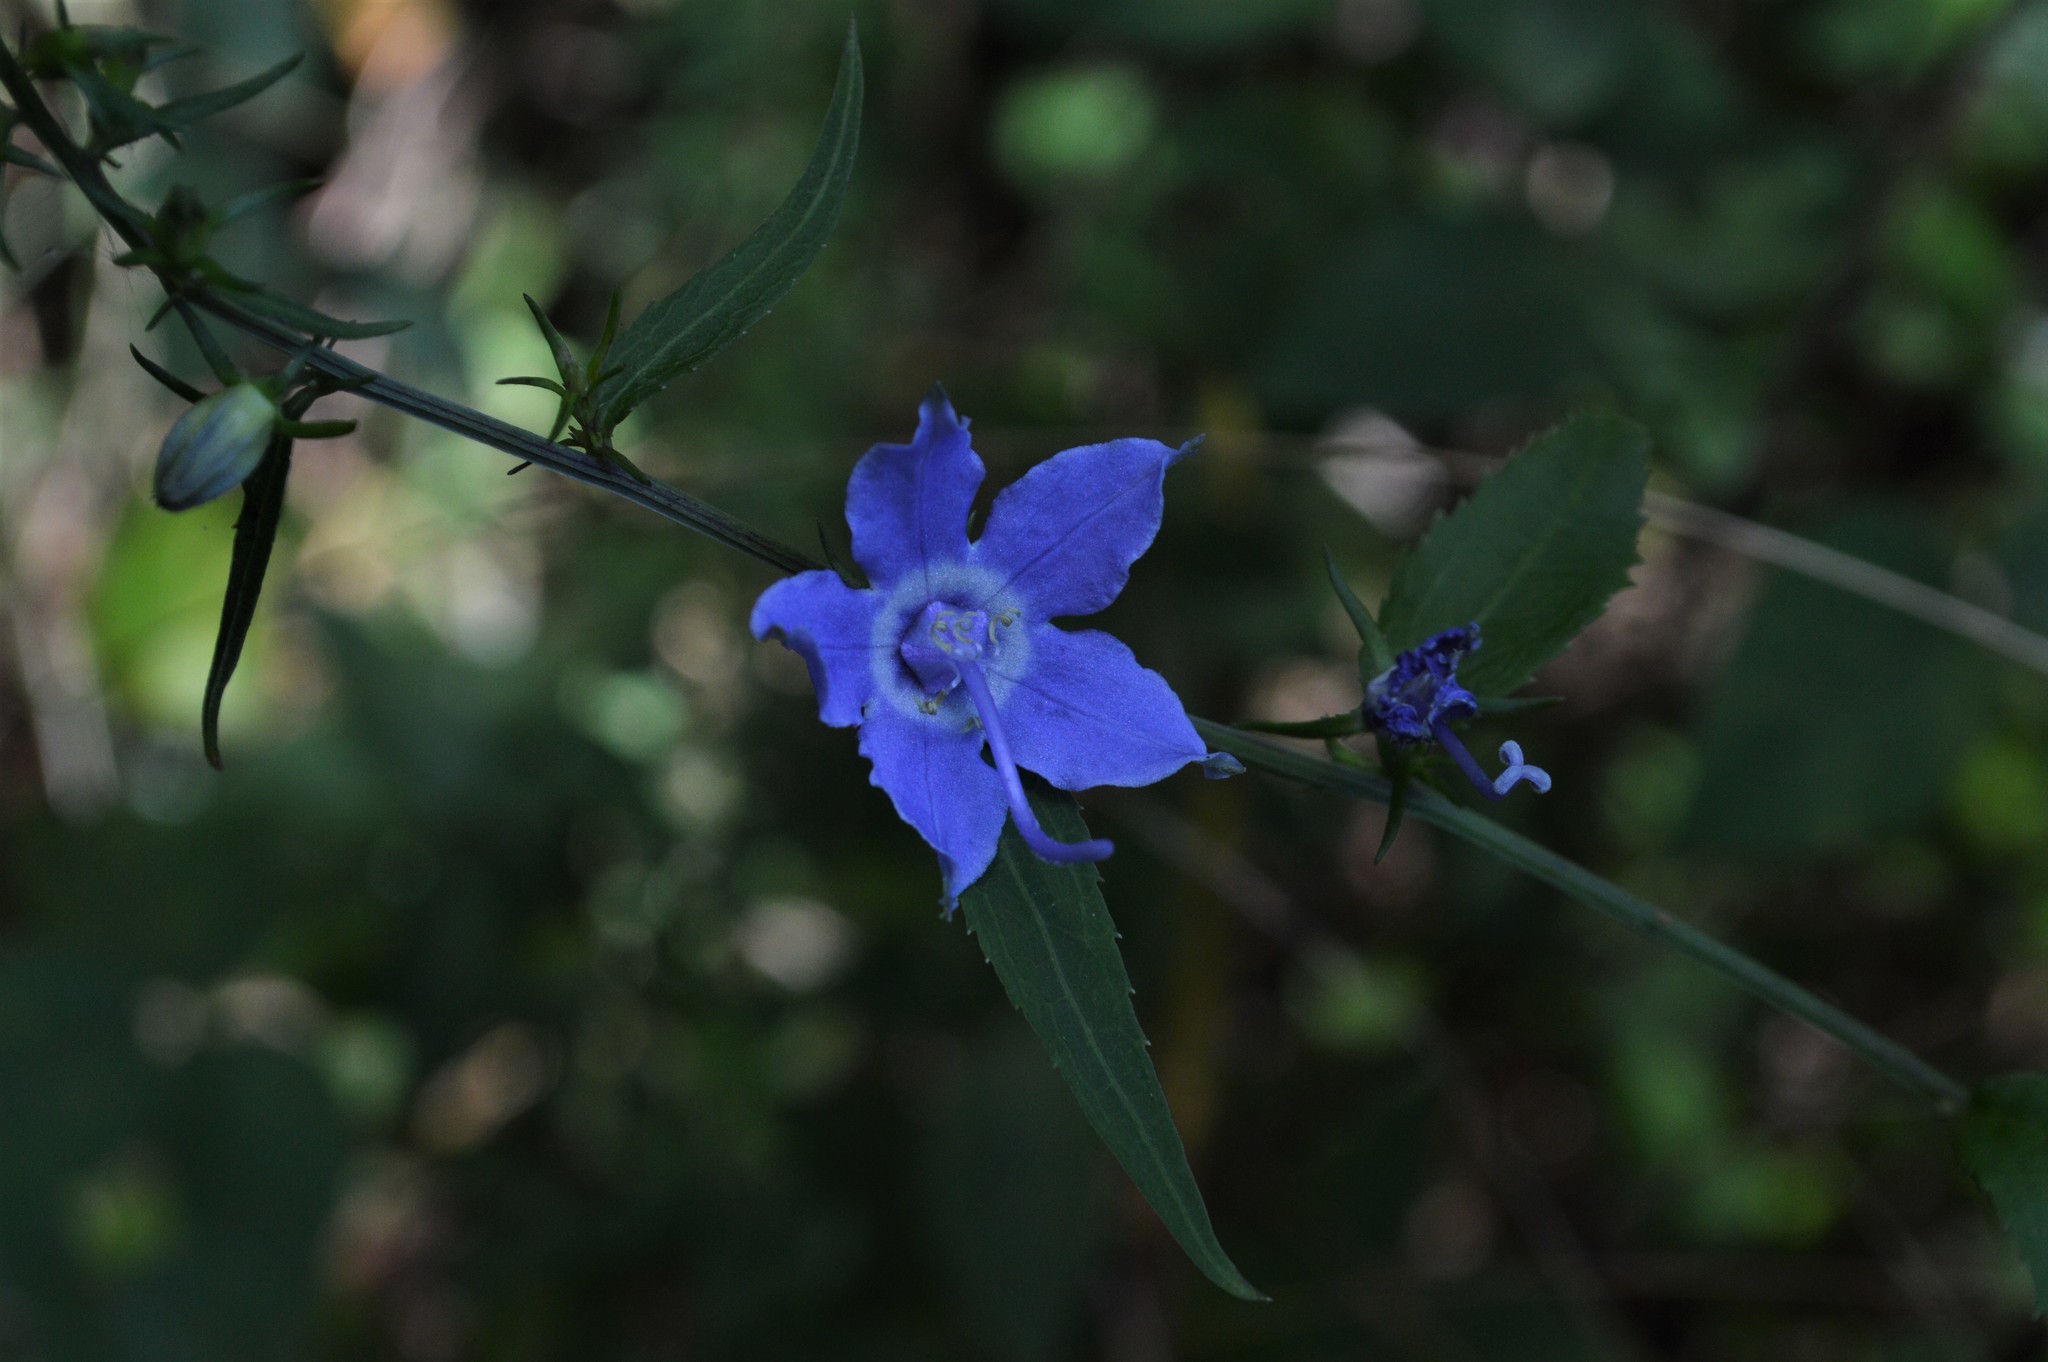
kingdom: Plantae
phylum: Tracheophyta
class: Magnoliopsida
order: Asterales
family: Campanulaceae
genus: Campanulastrum
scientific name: Campanulastrum americanum
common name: American bellflower
